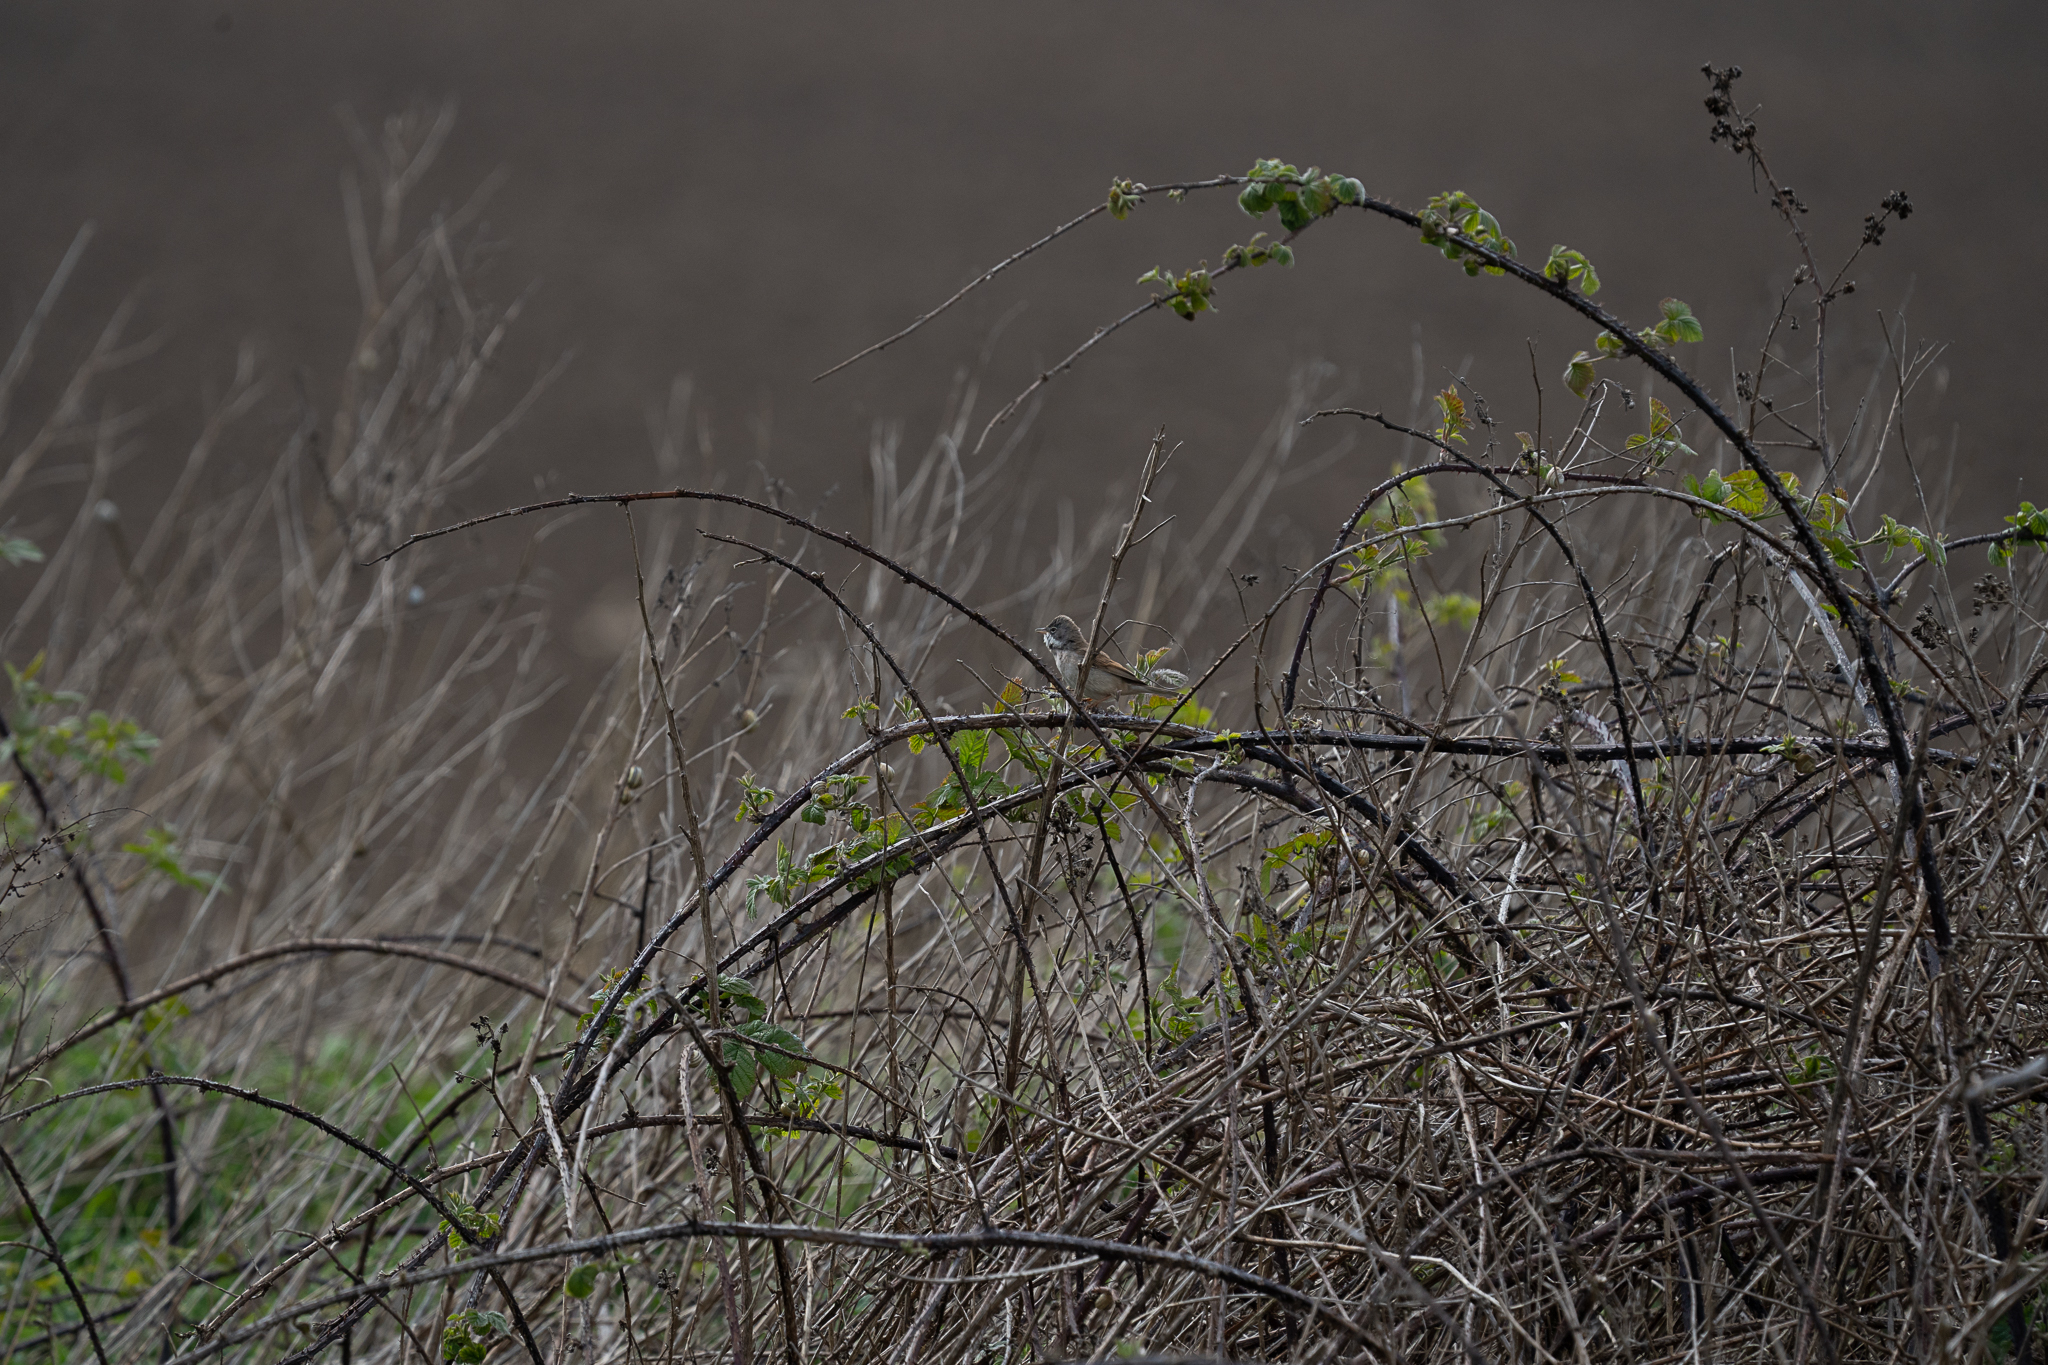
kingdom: Animalia
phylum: Chordata
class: Aves
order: Passeriformes
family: Sylviidae
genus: Sylvia
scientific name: Sylvia communis
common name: Common whitethroat
